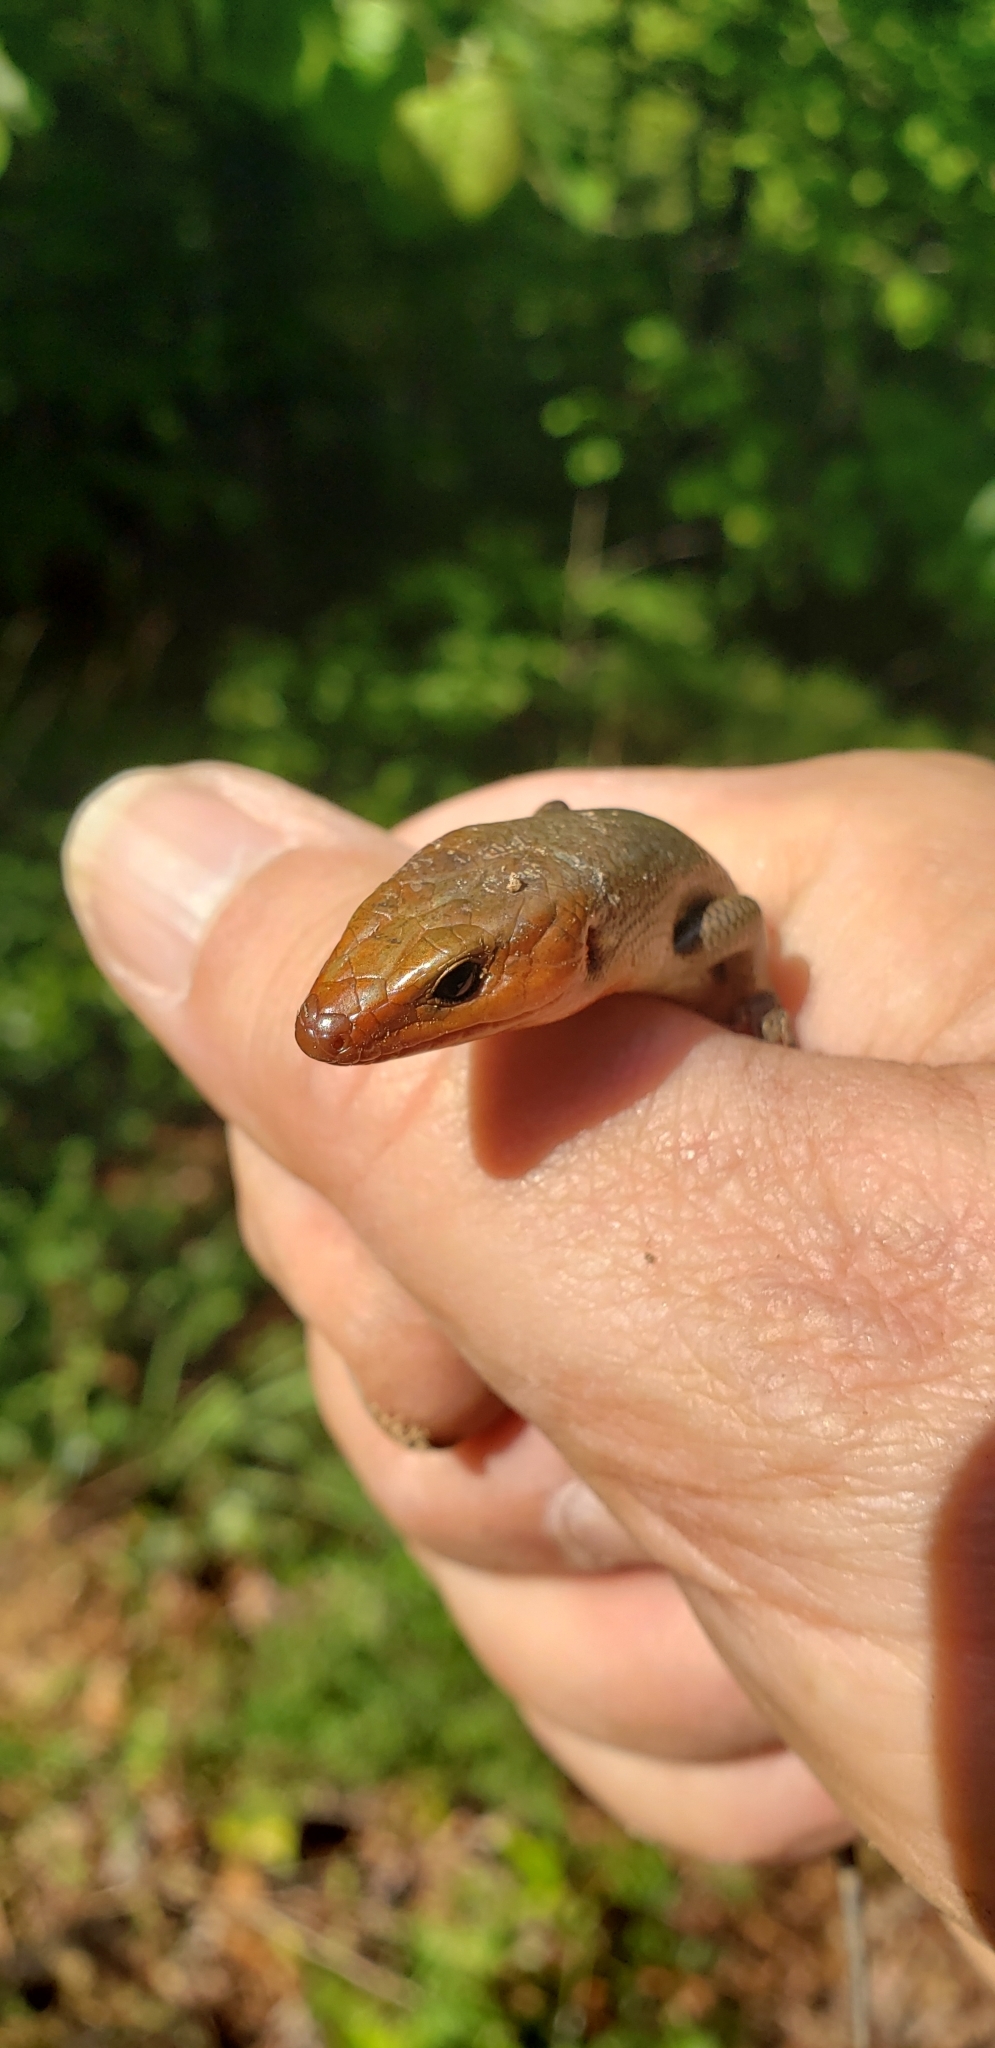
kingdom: Animalia
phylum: Chordata
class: Squamata
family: Scincidae
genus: Plestiodon
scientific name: Plestiodon fasciatus
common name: Five-lined skink
